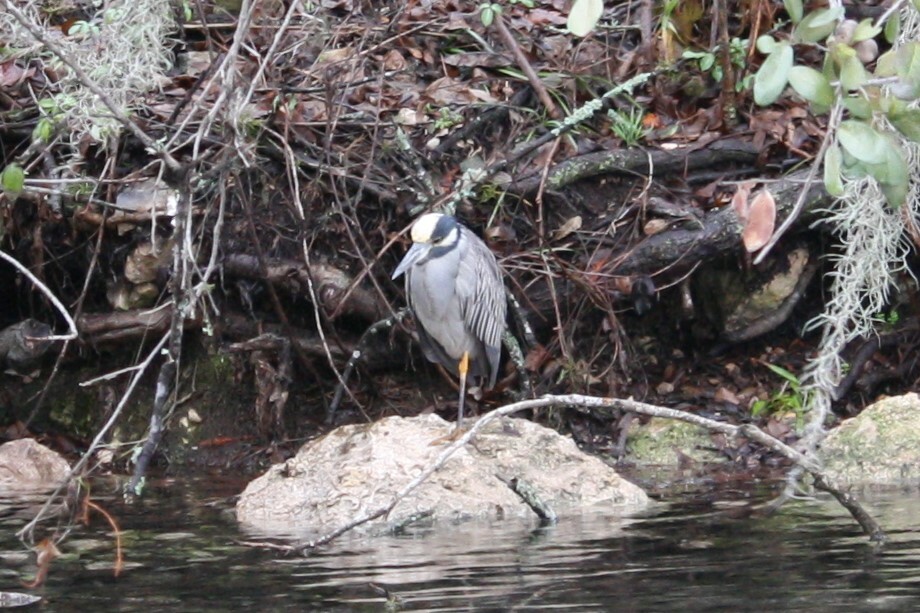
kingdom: Animalia
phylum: Chordata
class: Aves
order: Pelecaniformes
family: Ardeidae
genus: Nyctanassa
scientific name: Nyctanassa violacea
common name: Yellow-crowned night heron
